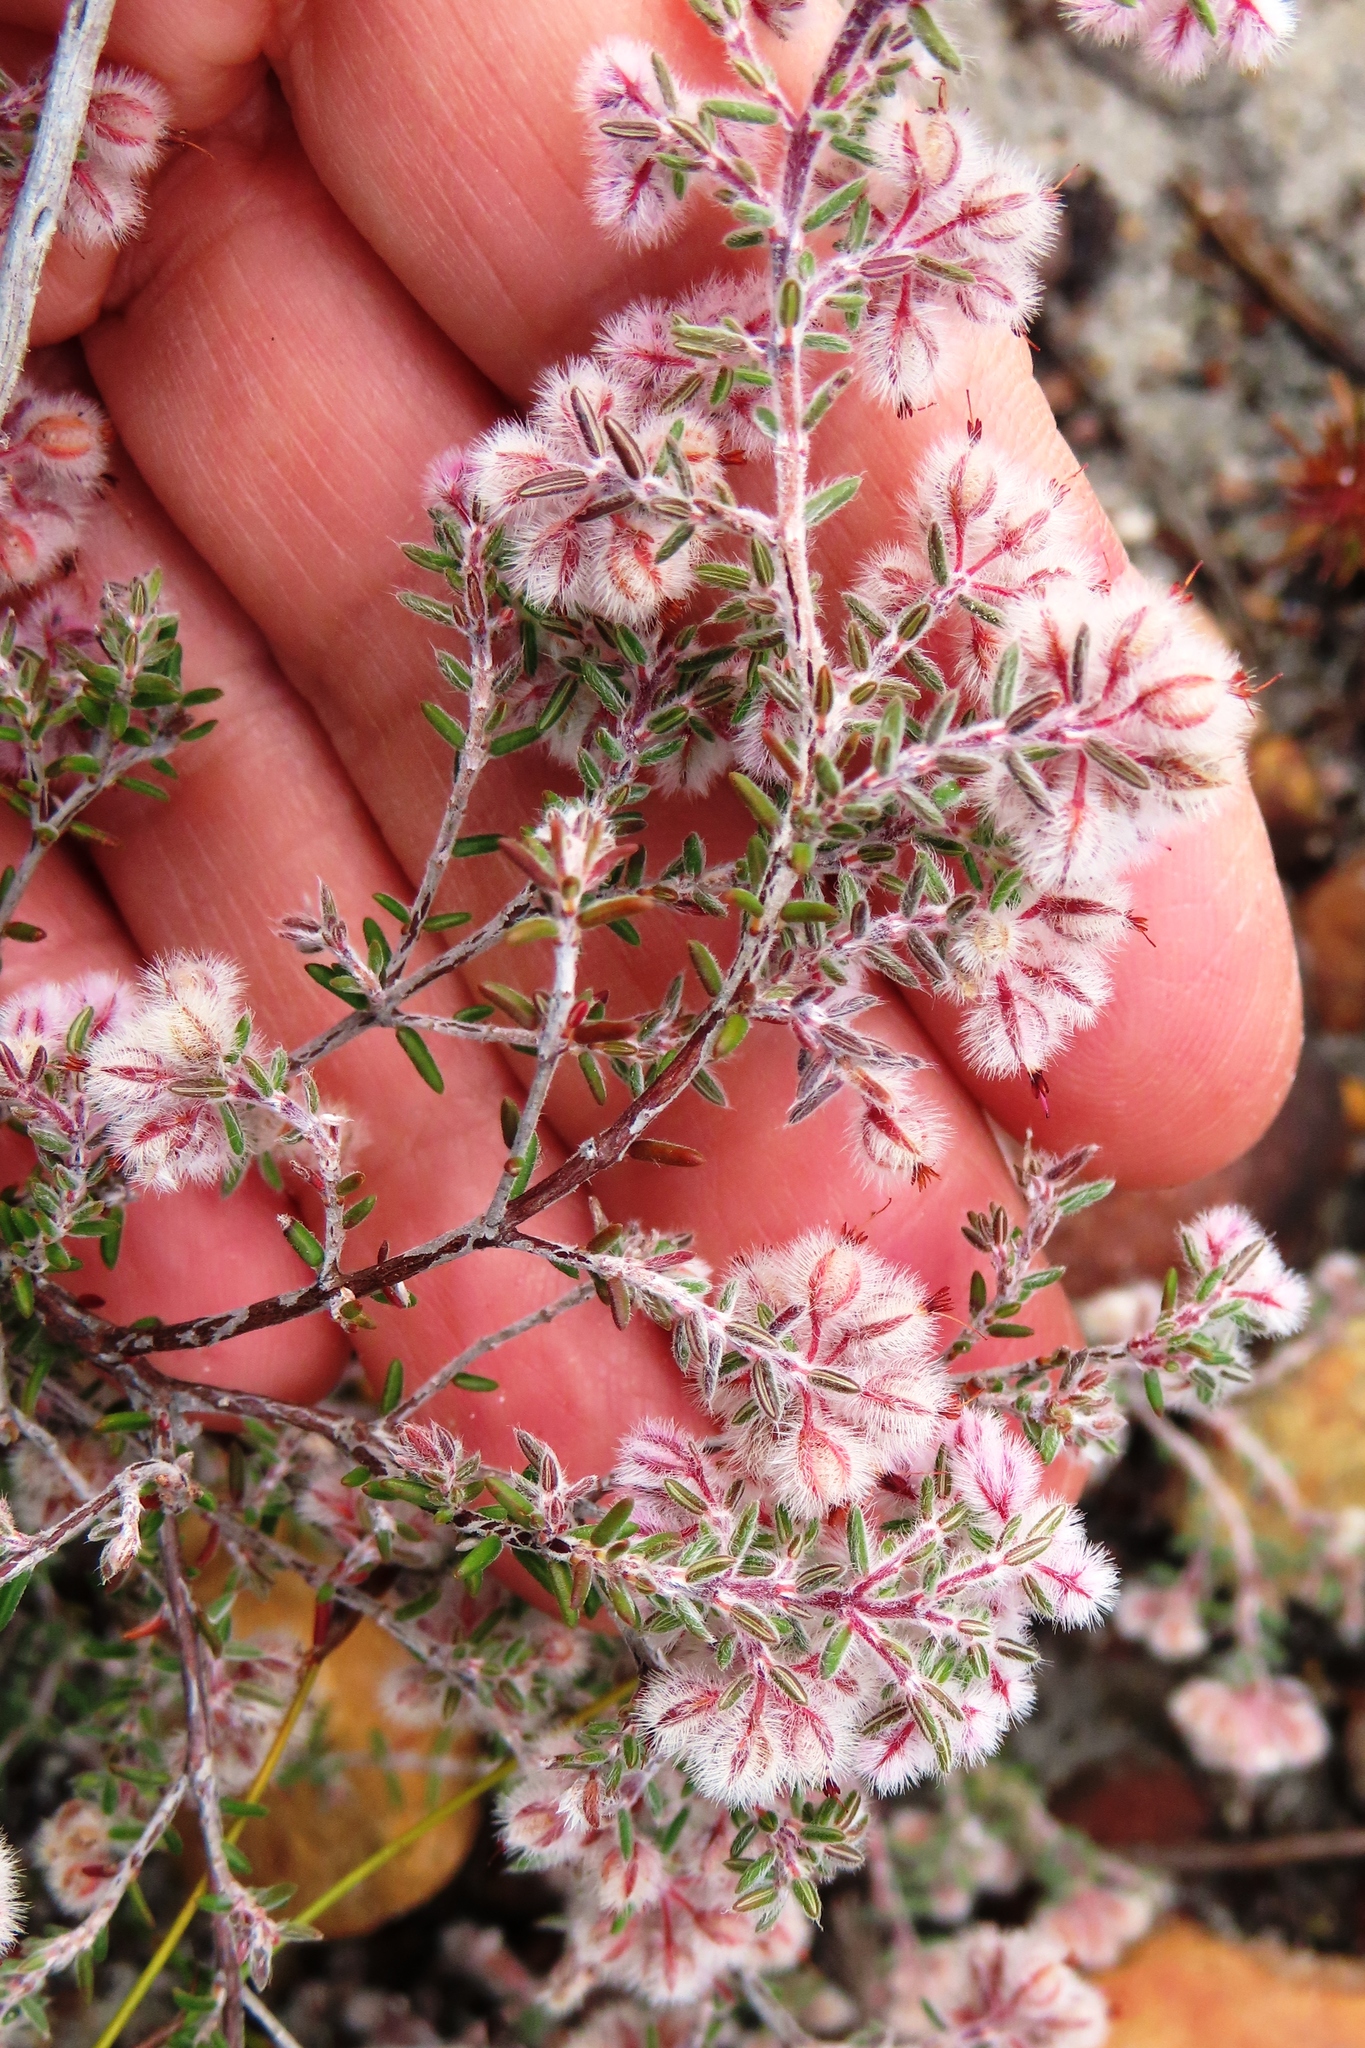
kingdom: Plantae
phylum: Tracheophyta
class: Magnoliopsida
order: Ericales
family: Ericaceae
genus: Erica
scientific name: Erica pilosiflora
